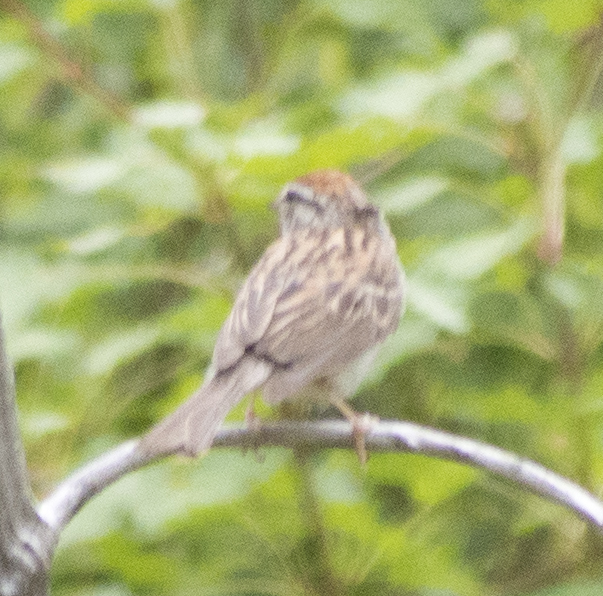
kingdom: Animalia
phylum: Chordata
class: Aves
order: Passeriformes
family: Passerellidae
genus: Spizella
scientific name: Spizella passerina
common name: Chipping sparrow
